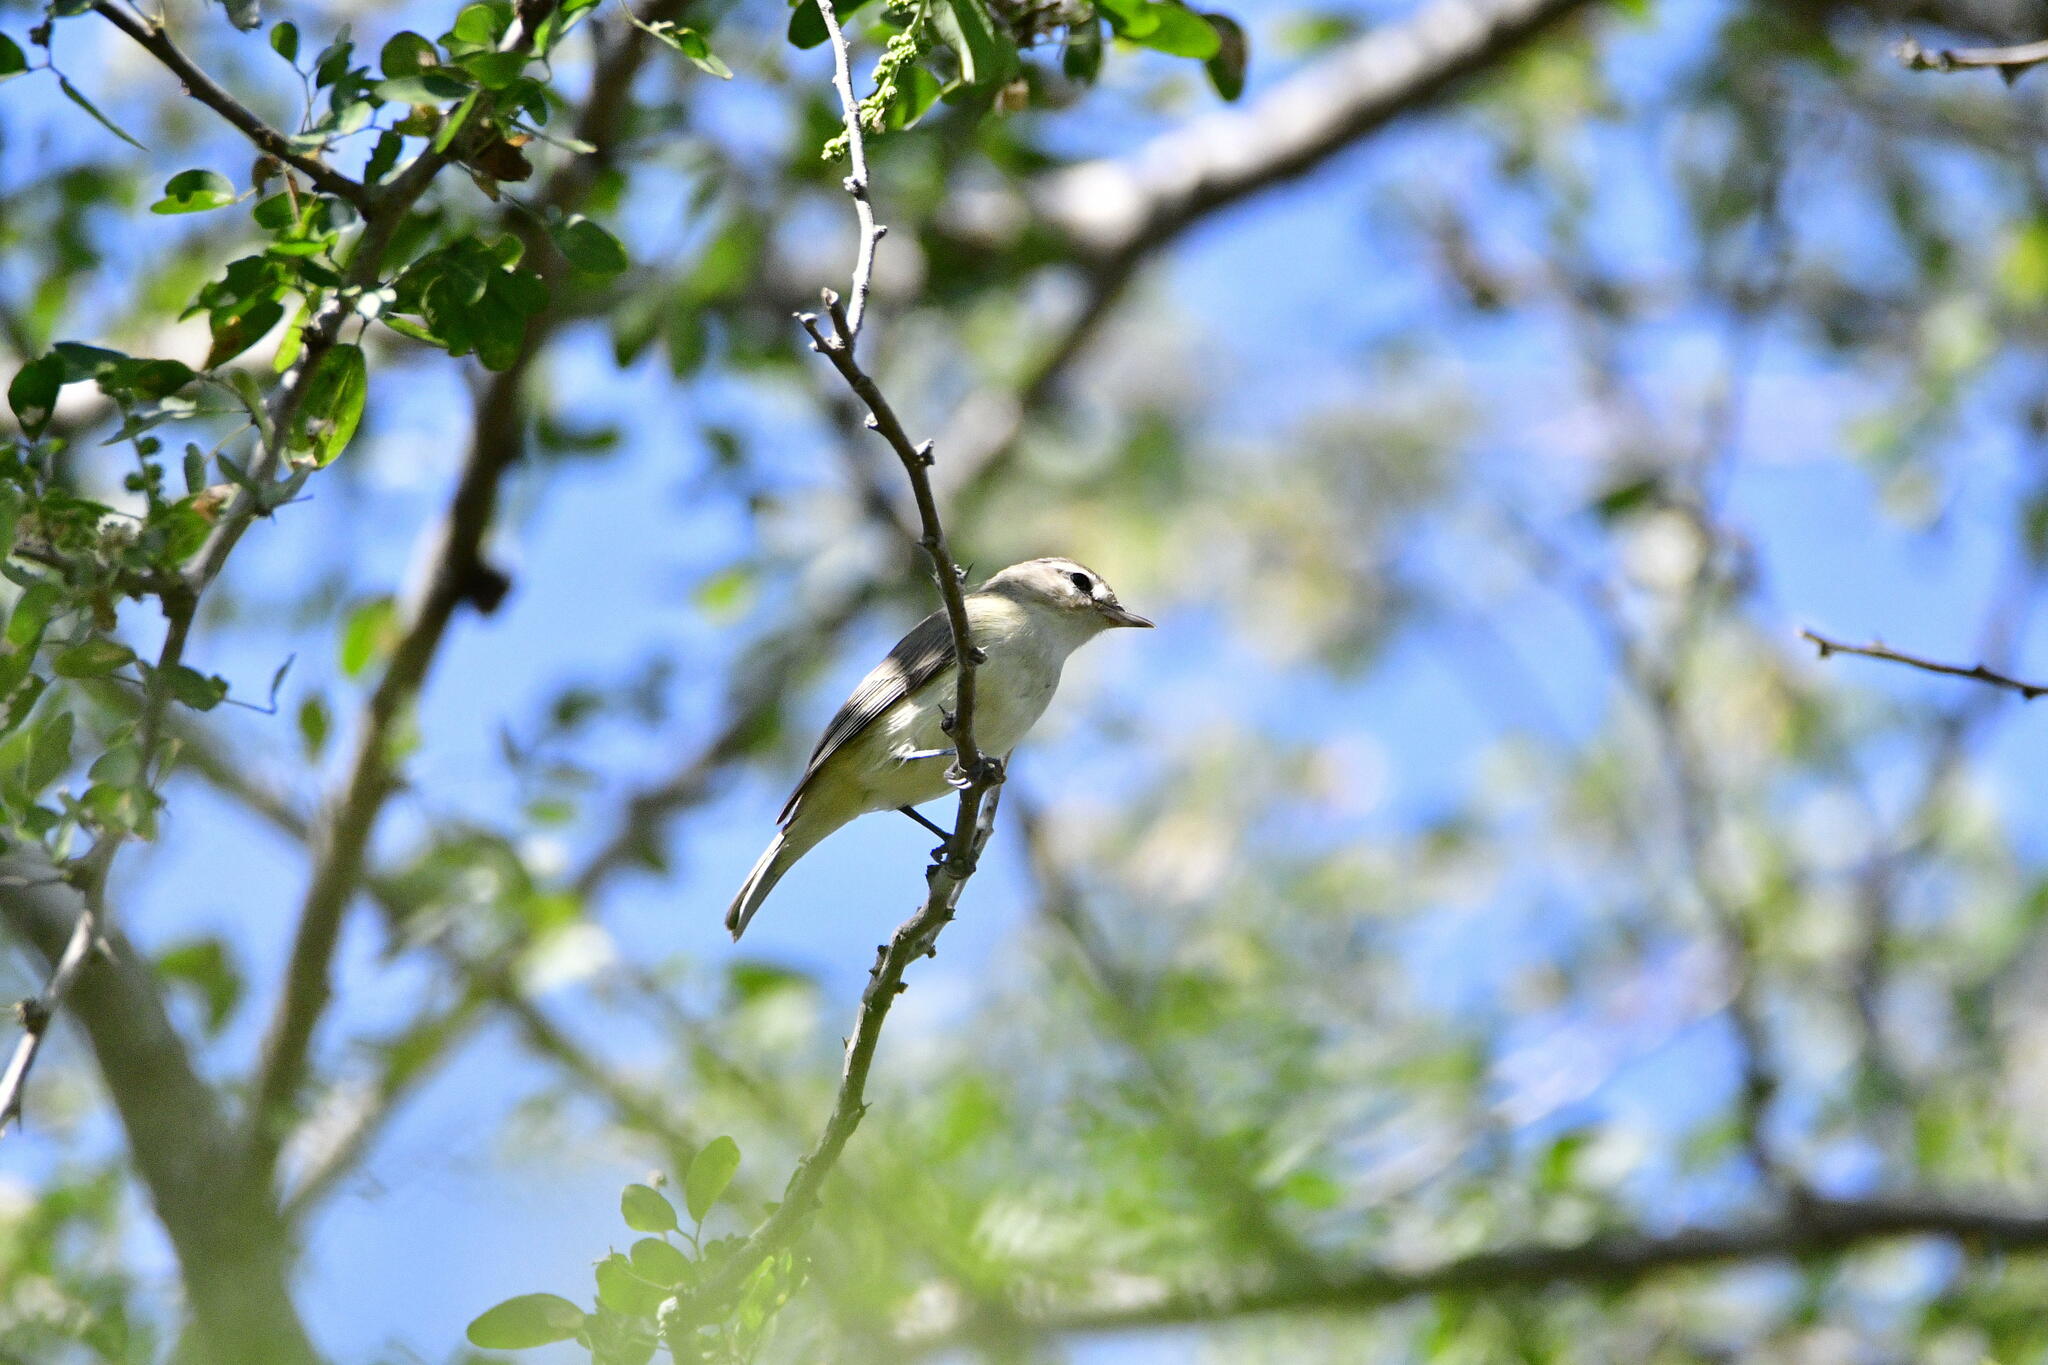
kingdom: Animalia
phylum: Chordata
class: Aves
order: Passeriformes
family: Vireonidae
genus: Vireo
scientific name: Vireo gilvus
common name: Warbling vireo
